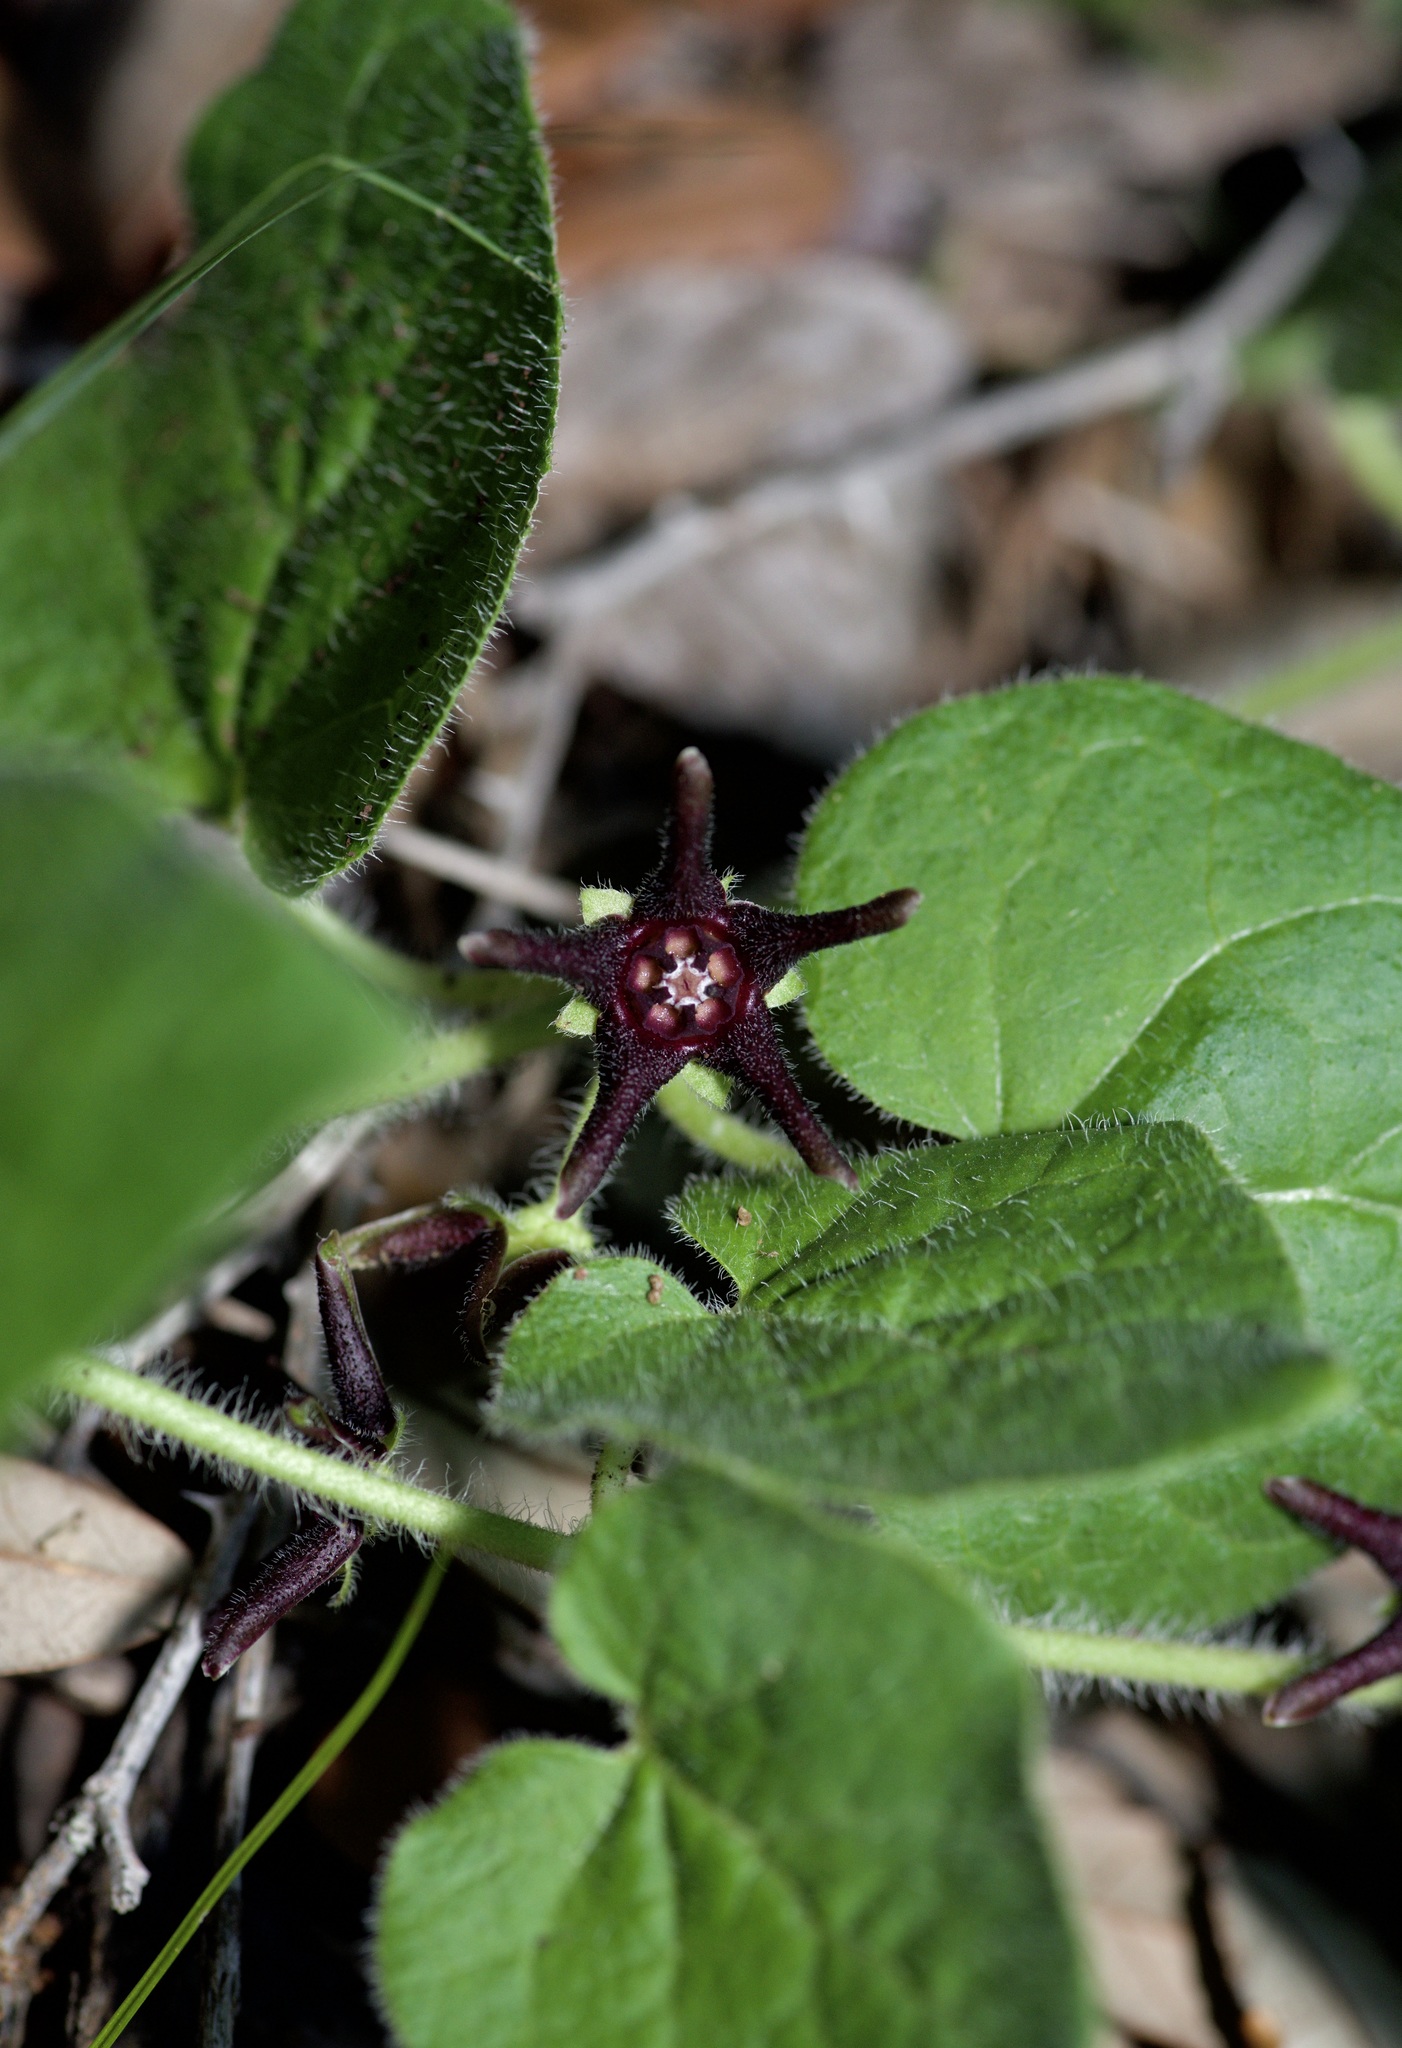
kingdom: Plantae
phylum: Tracheophyta
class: Magnoliopsida
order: Gentianales
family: Apocynaceae
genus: Chthamalia
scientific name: Chthamalia biflora
